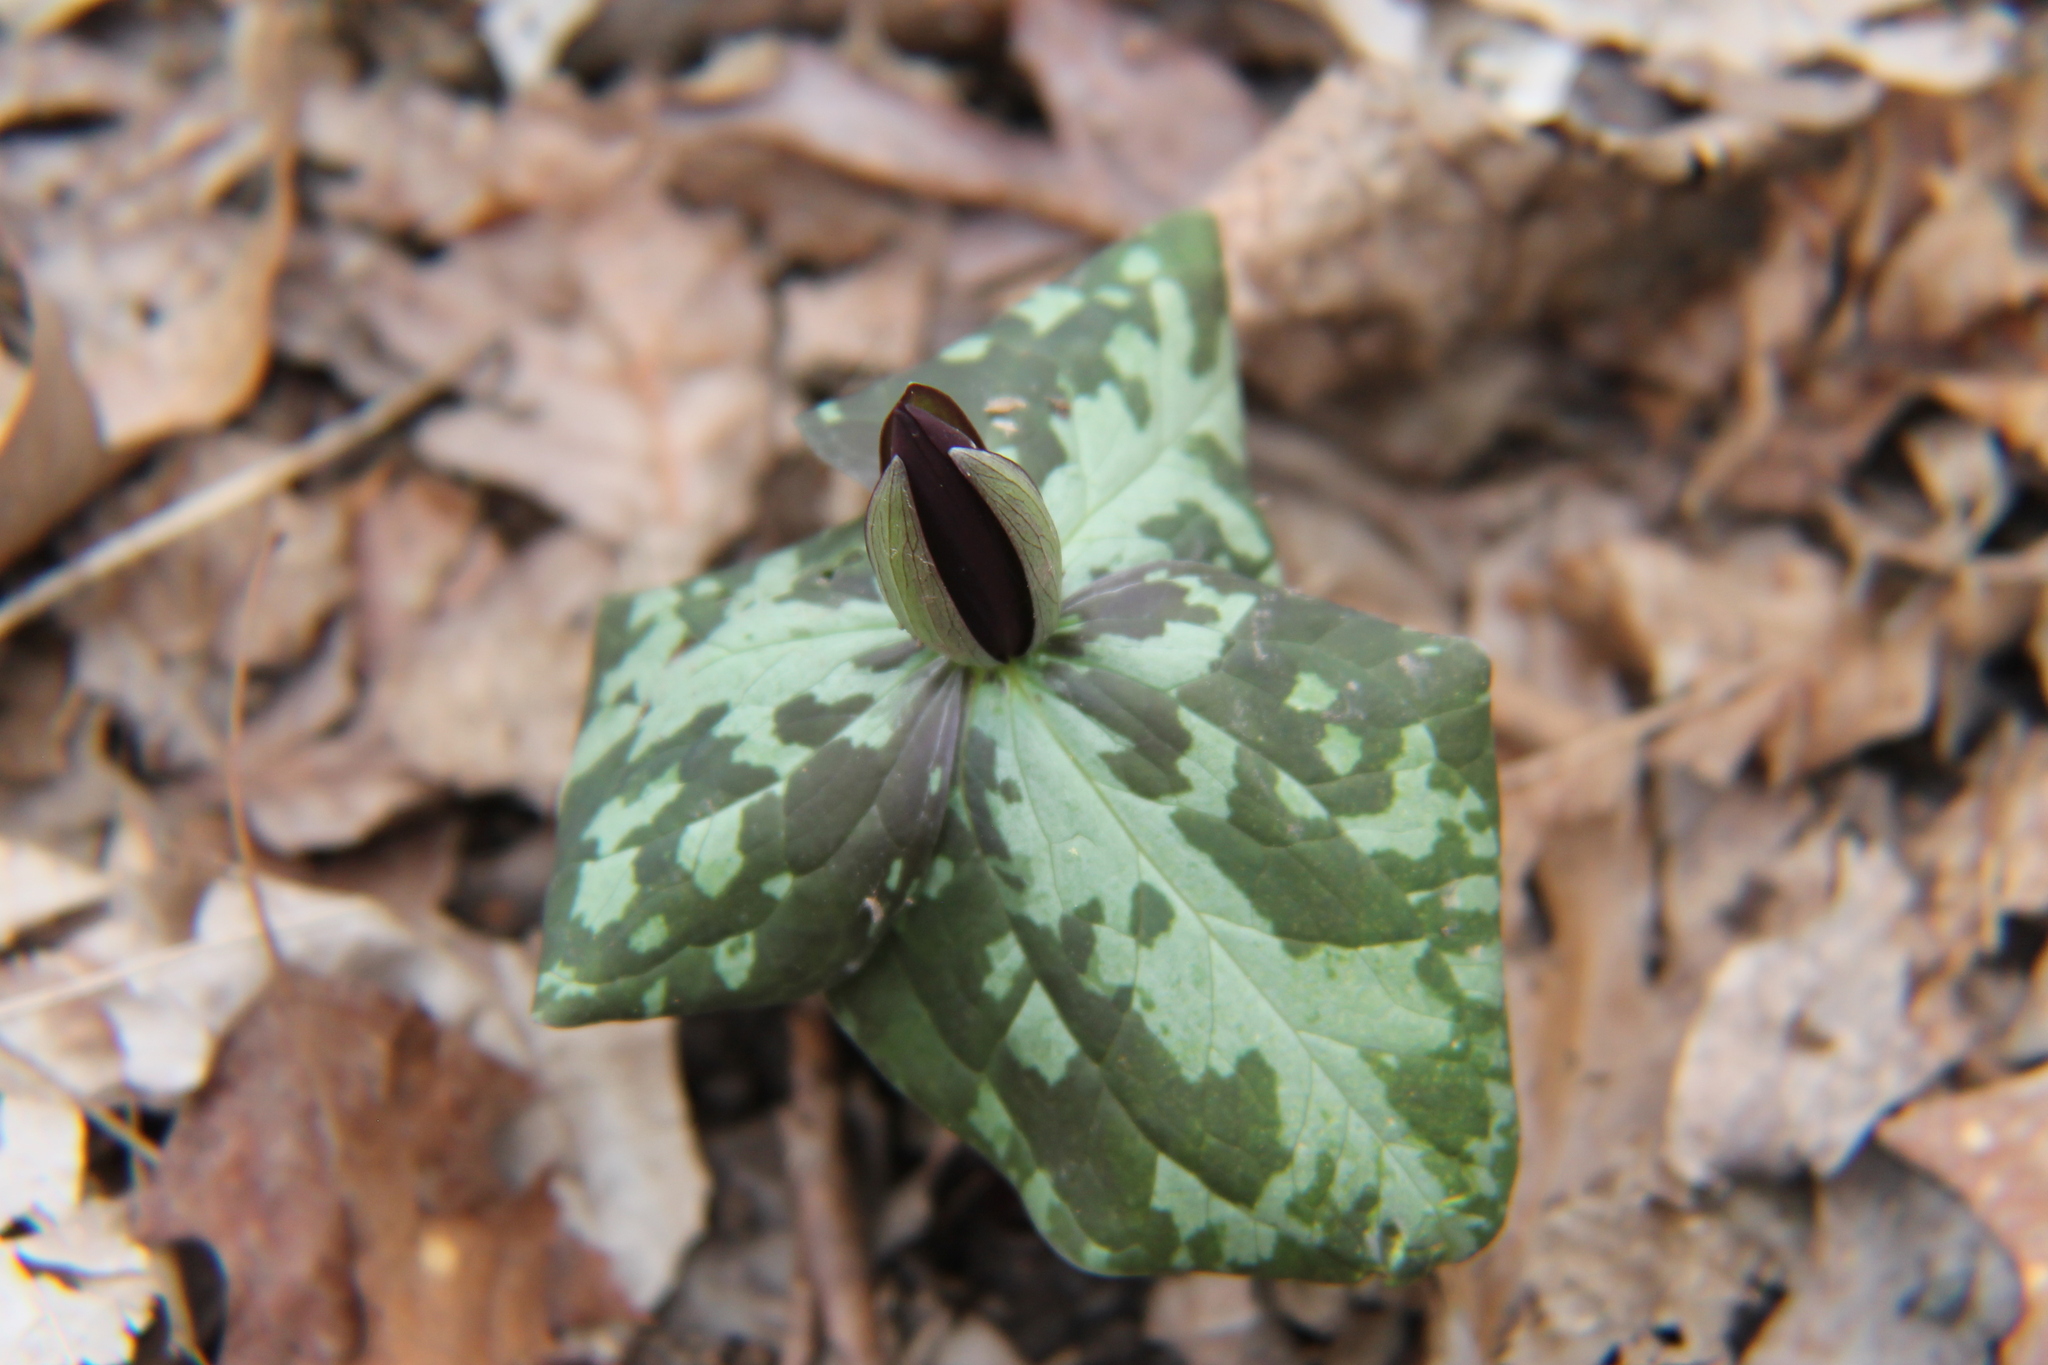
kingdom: Plantae
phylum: Tracheophyta
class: Liliopsida
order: Liliales
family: Melanthiaceae
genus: Trillium
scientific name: Trillium cuneatum
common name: Cuneate trillium
